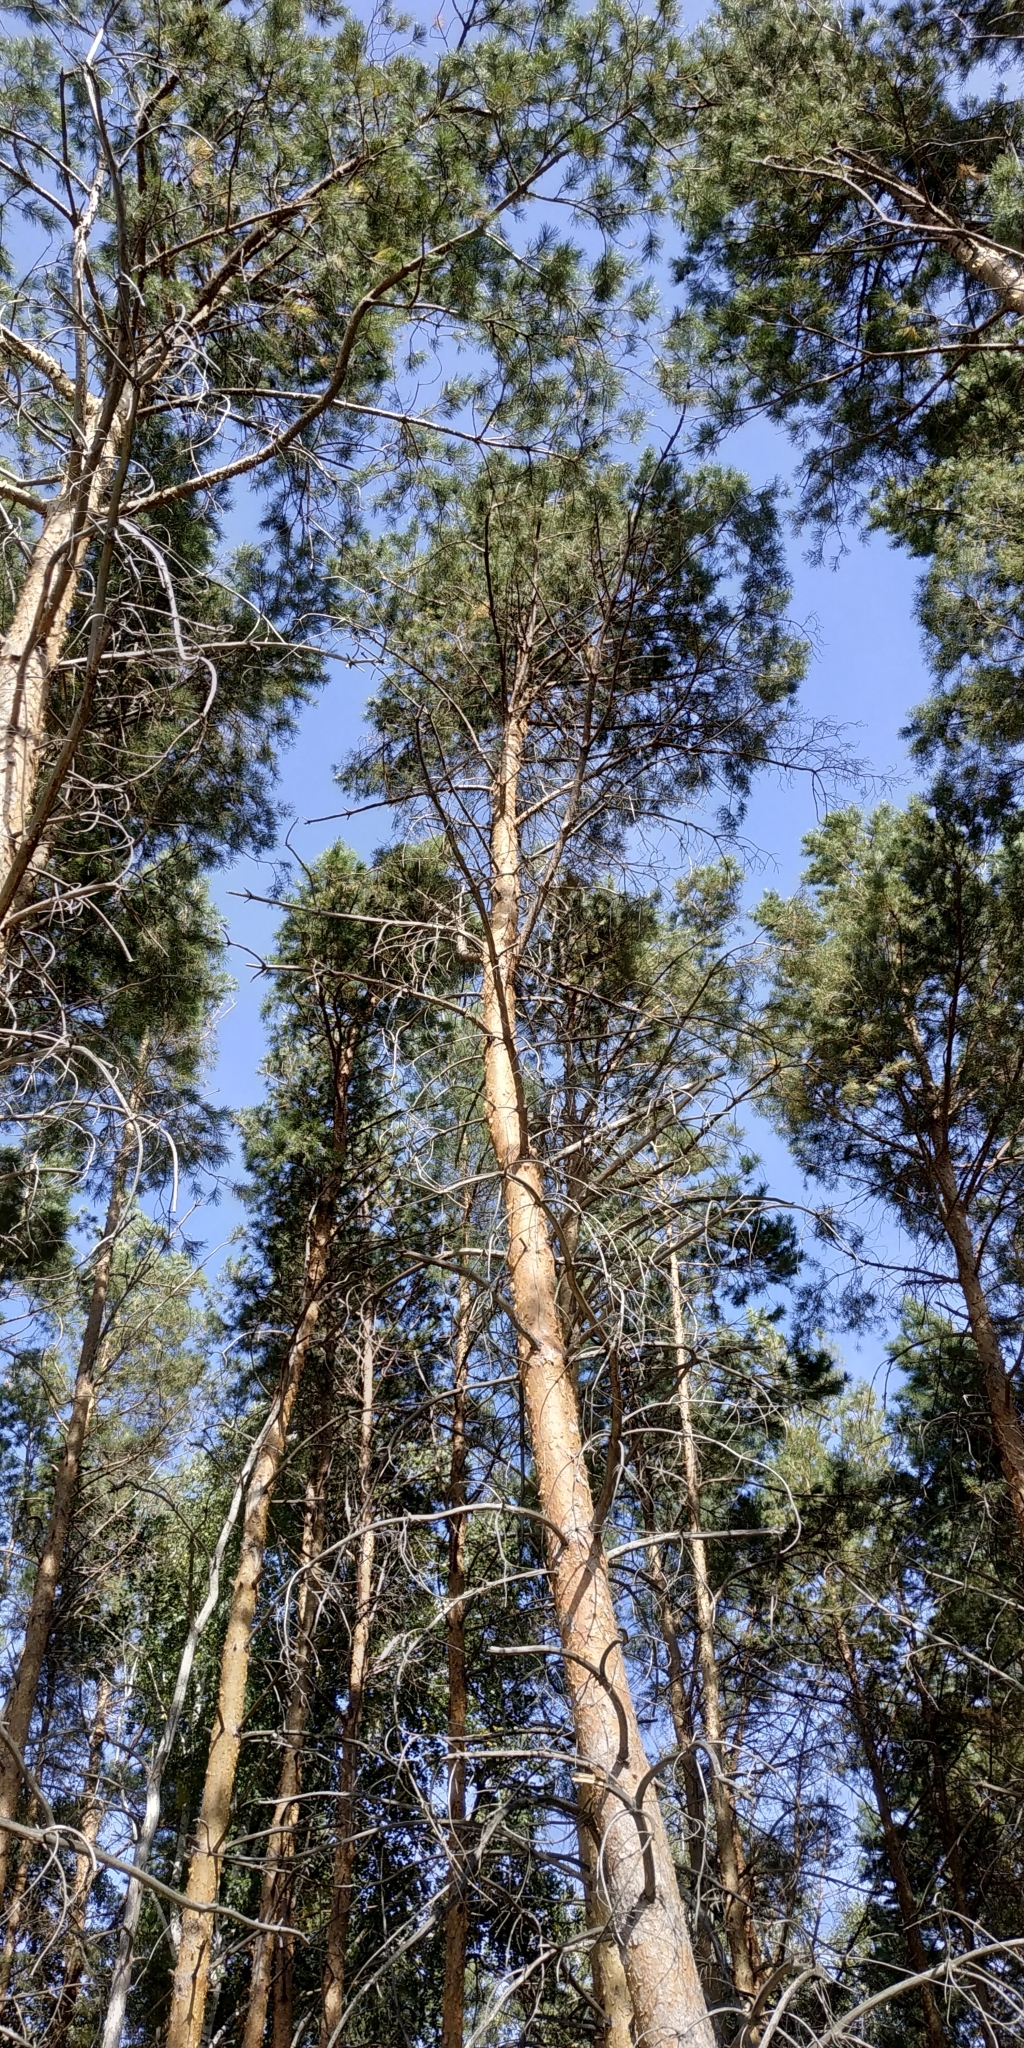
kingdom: Plantae
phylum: Tracheophyta
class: Pinopsida
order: Pinales
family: Pinaceae
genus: Pinus
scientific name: Pinus sylvestris
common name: Scots pine
